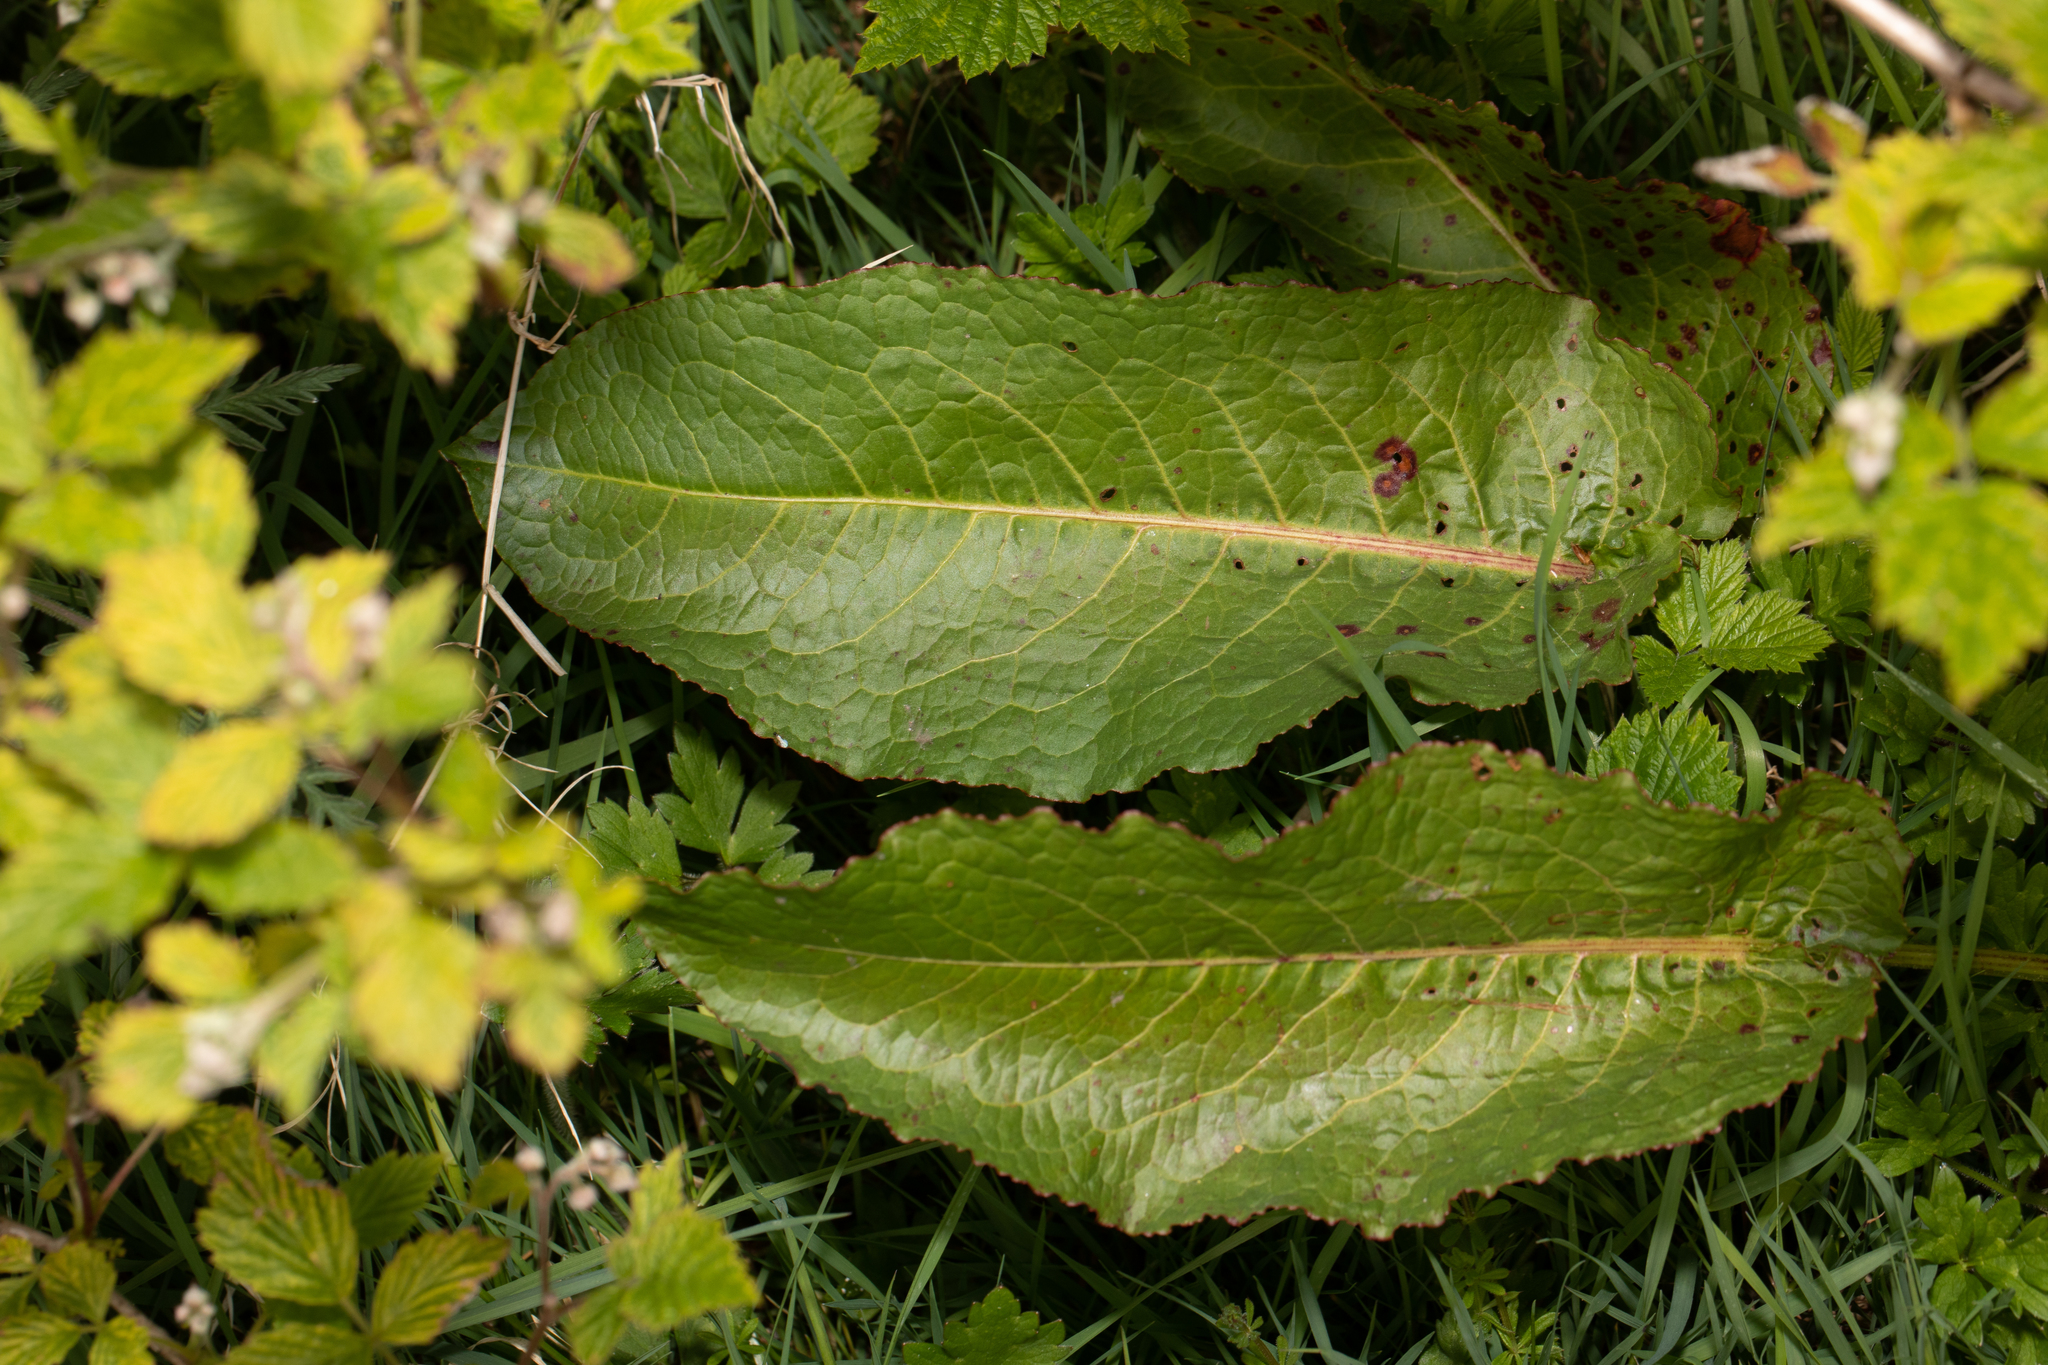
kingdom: Plantae
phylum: Tracheophyta
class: Magnoliopsida
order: Caryophyllales
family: Polygonaceae
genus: Rumex
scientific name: Rumex obtusifolius
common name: Bitter dock
